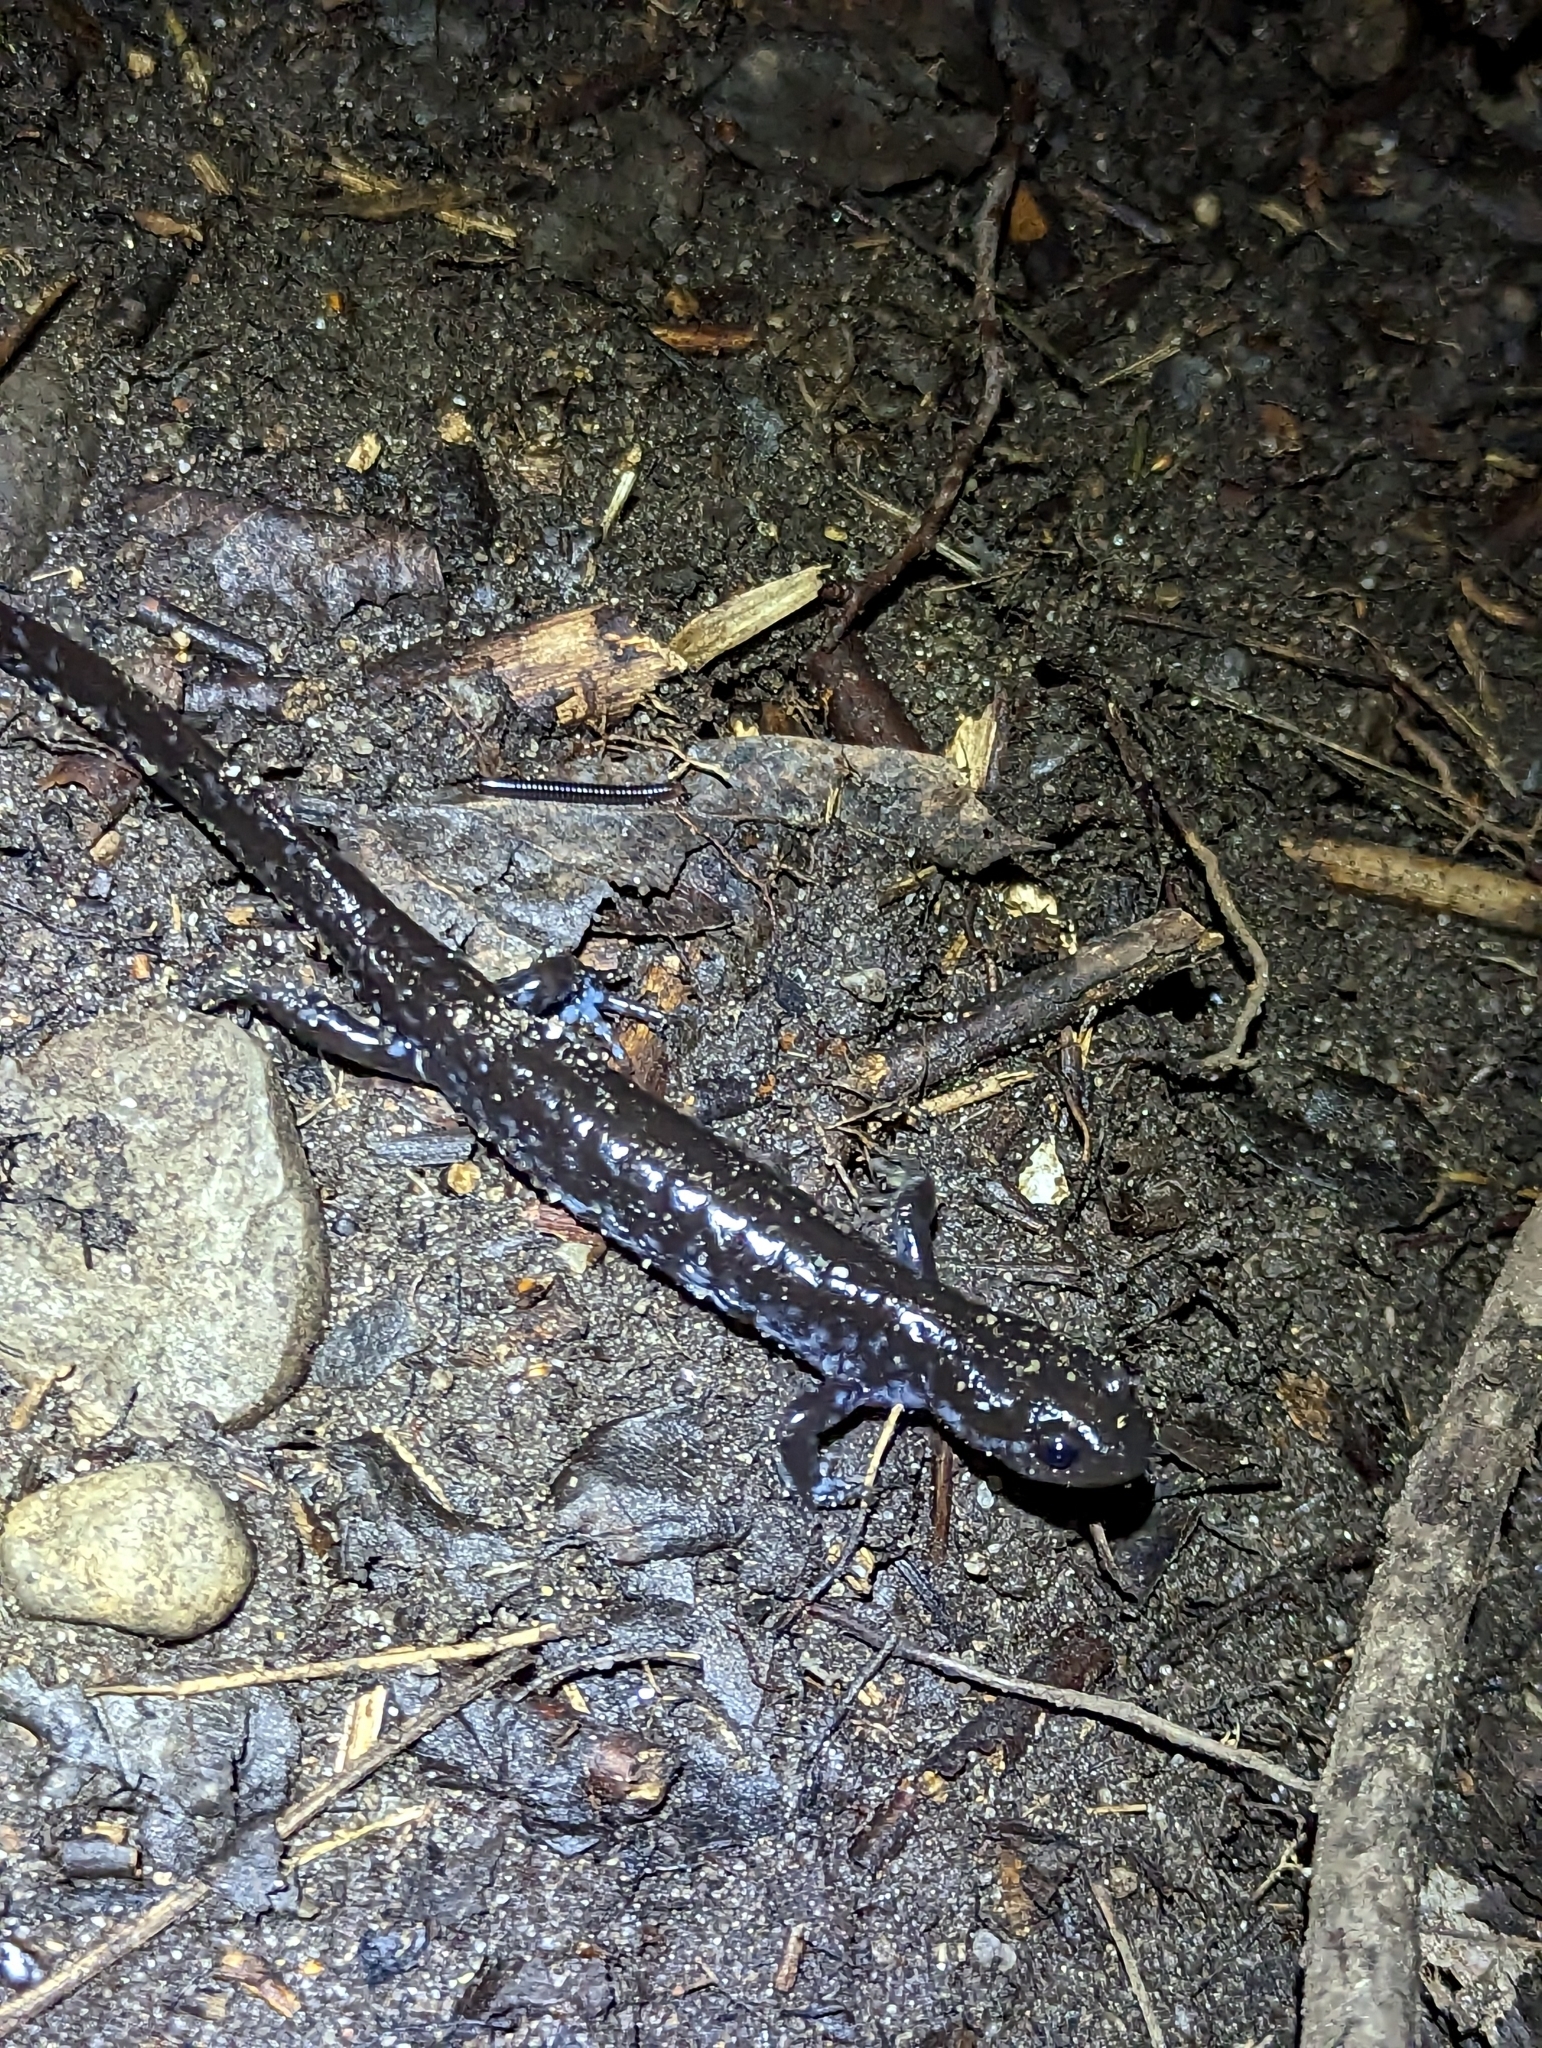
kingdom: Animalia
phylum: Chordata
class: Amphibia
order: Caudata
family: Ambystomatidae
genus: Ambystoma
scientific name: Ambystoma laterale
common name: Blue-spotted salamander
